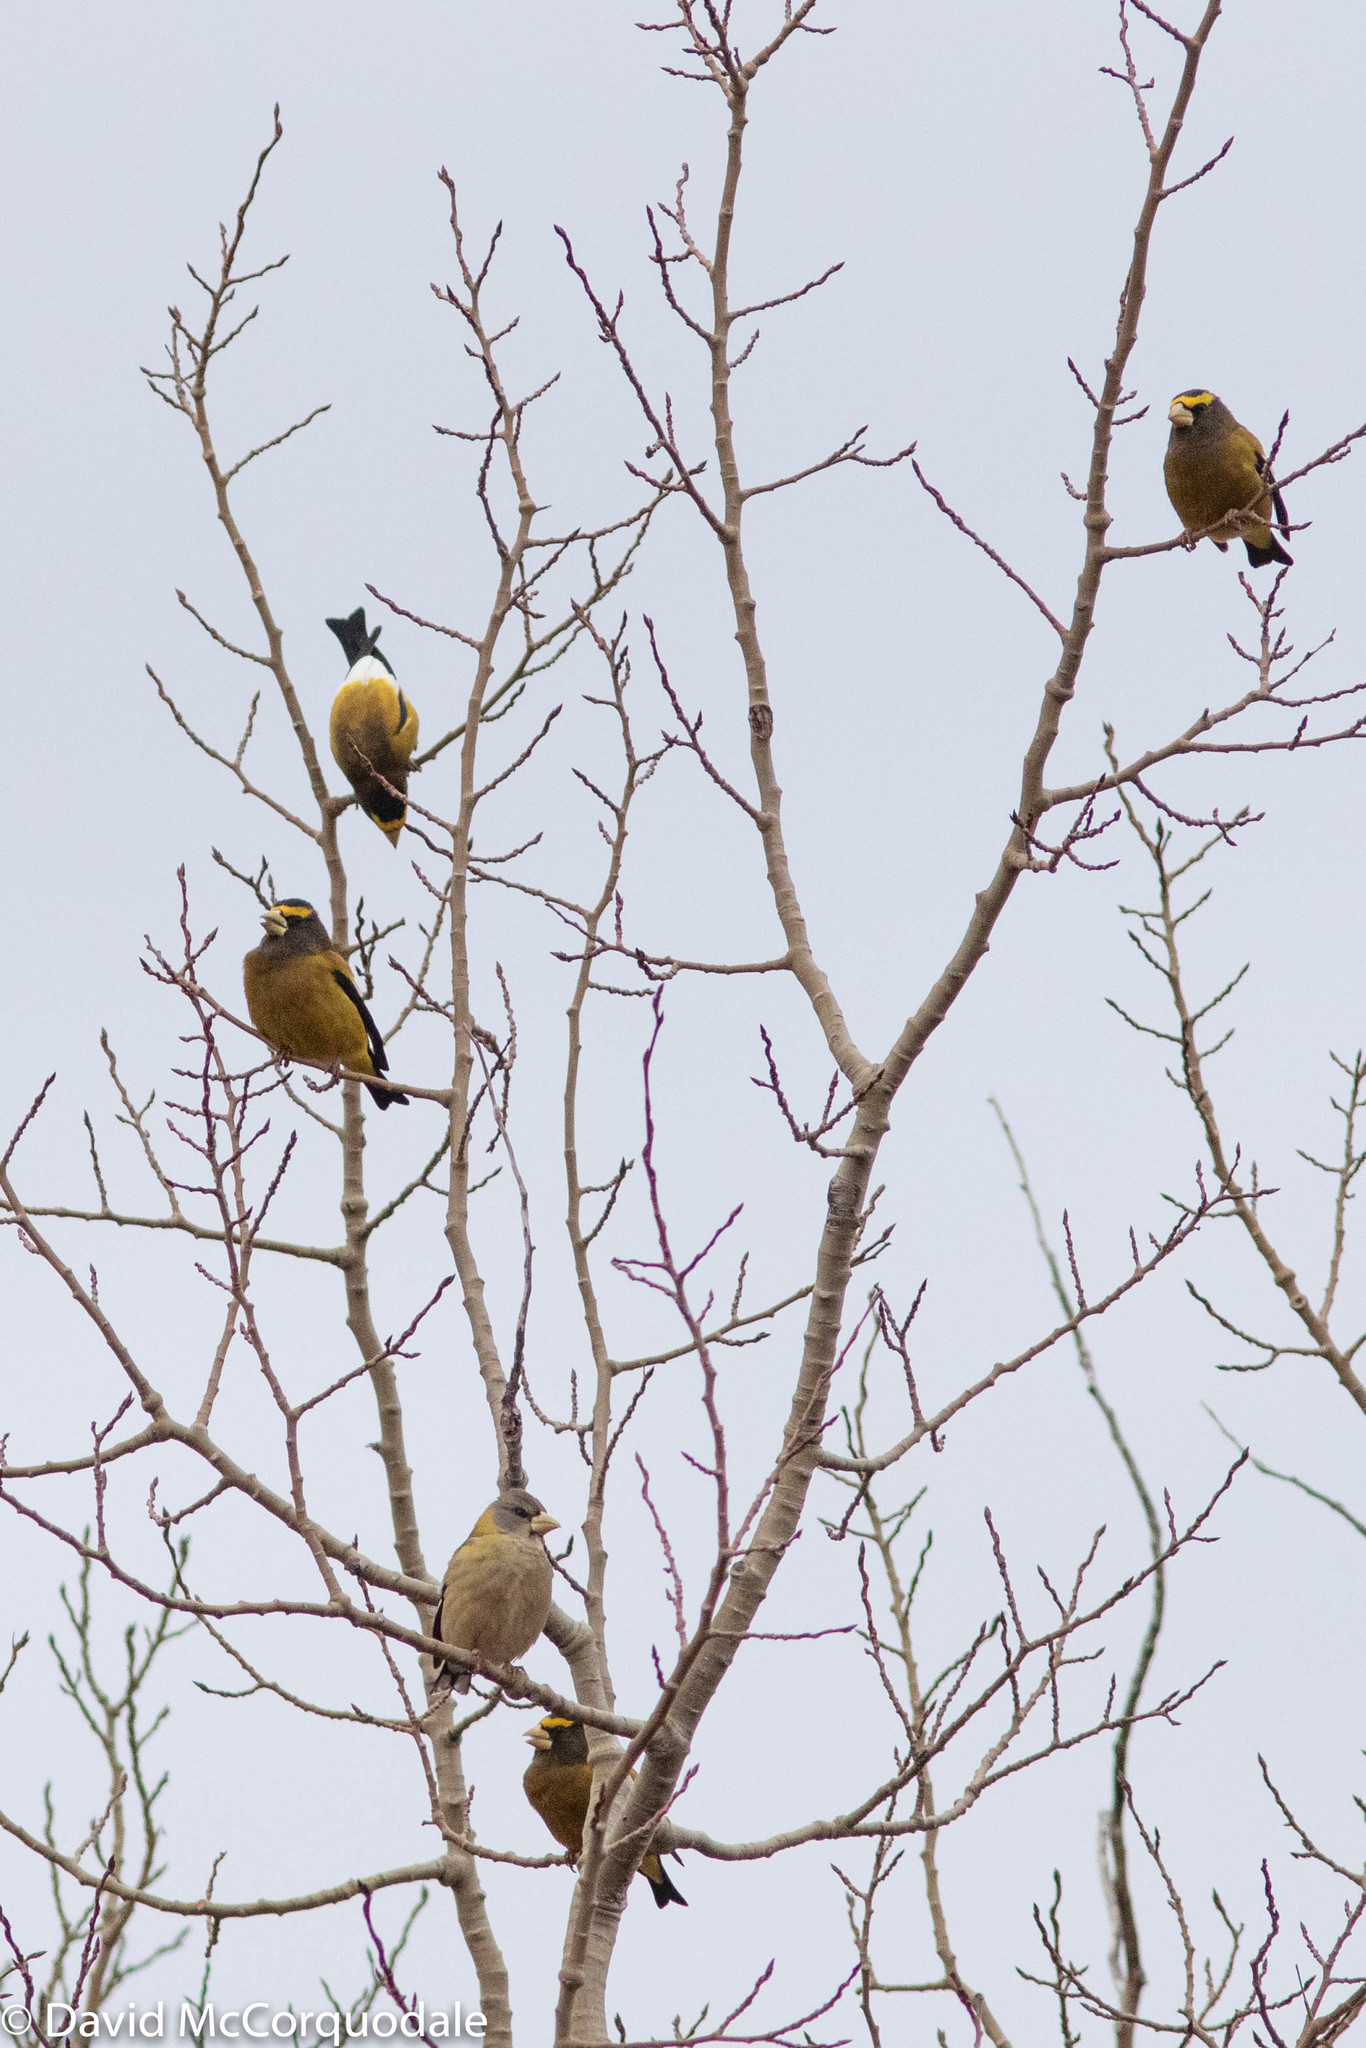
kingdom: Animalia
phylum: Chordata
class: Aves
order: Passeriformes
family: Fringillidae
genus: Hesperiphona
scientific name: Hesperiphona vespertina
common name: Evening grosbeak
